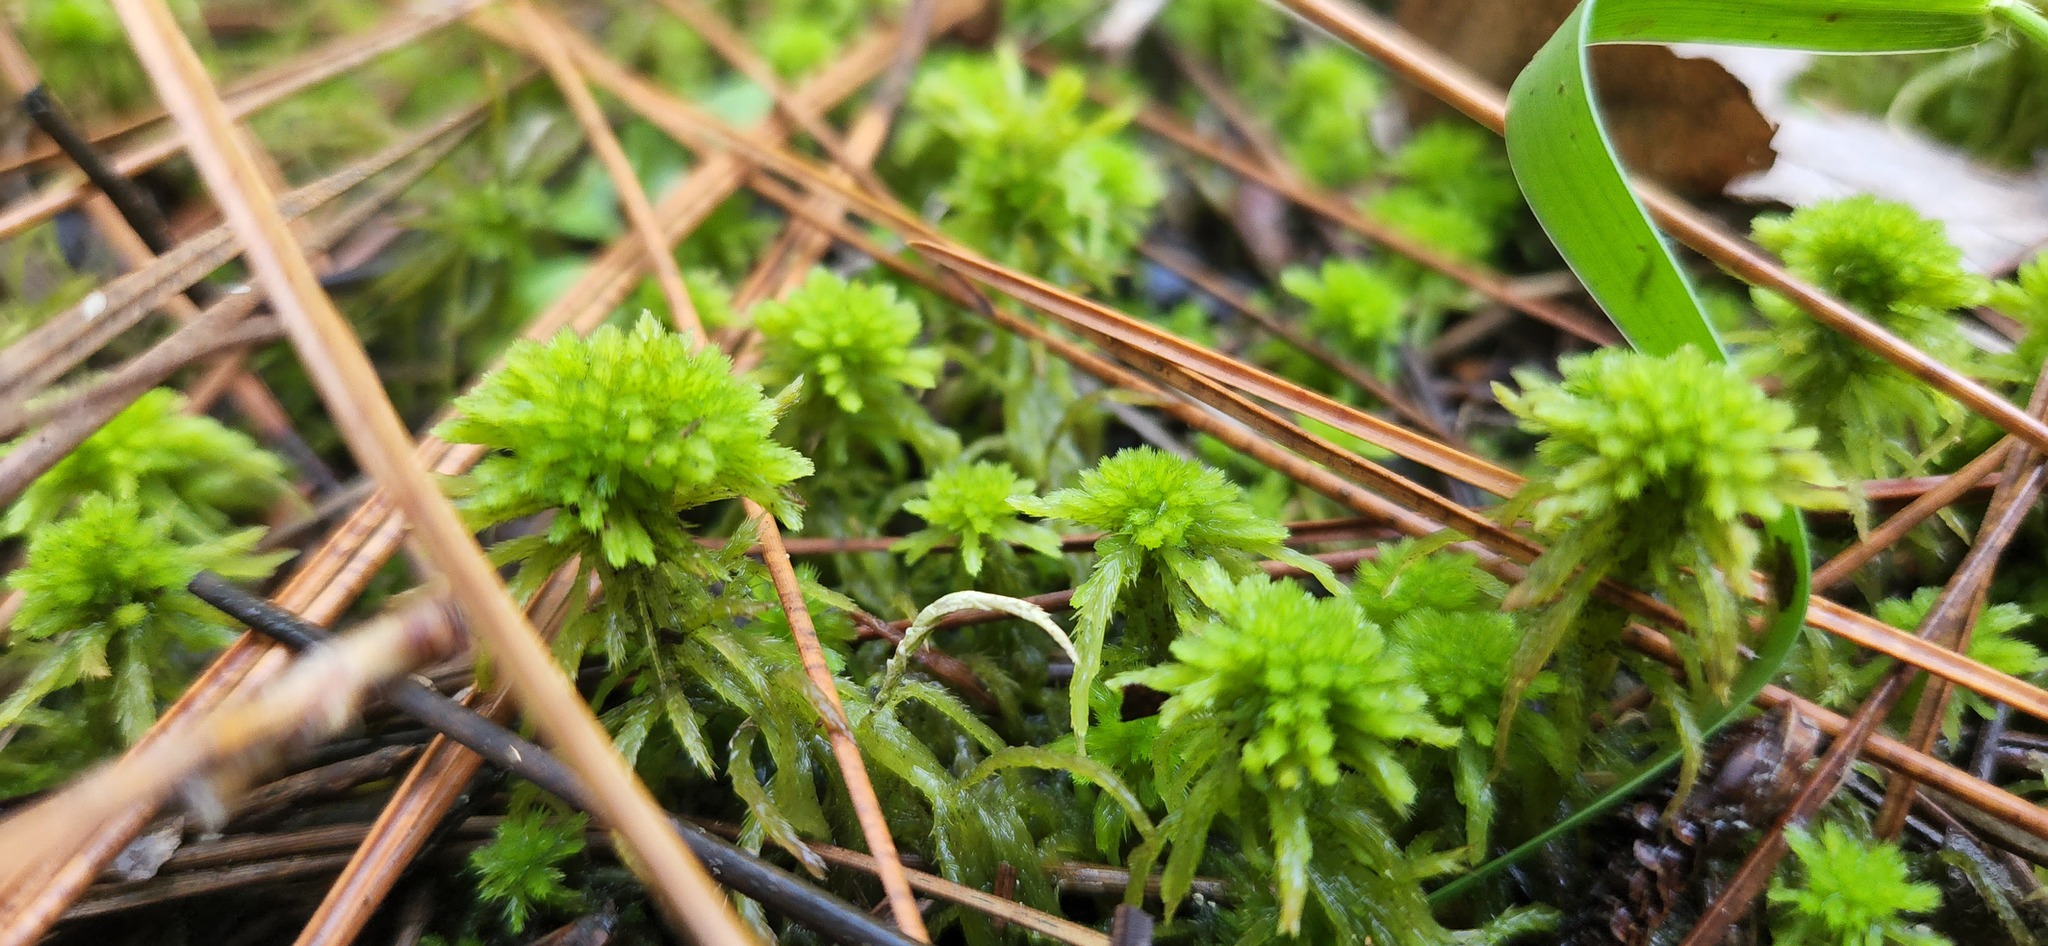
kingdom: Plantae
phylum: Bryophyta
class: Sphagnopsida
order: Sphagnales
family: Sphagnaceae
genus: Sphagnum
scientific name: Sphagnum squarrosum
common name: Shaggy peat moss
